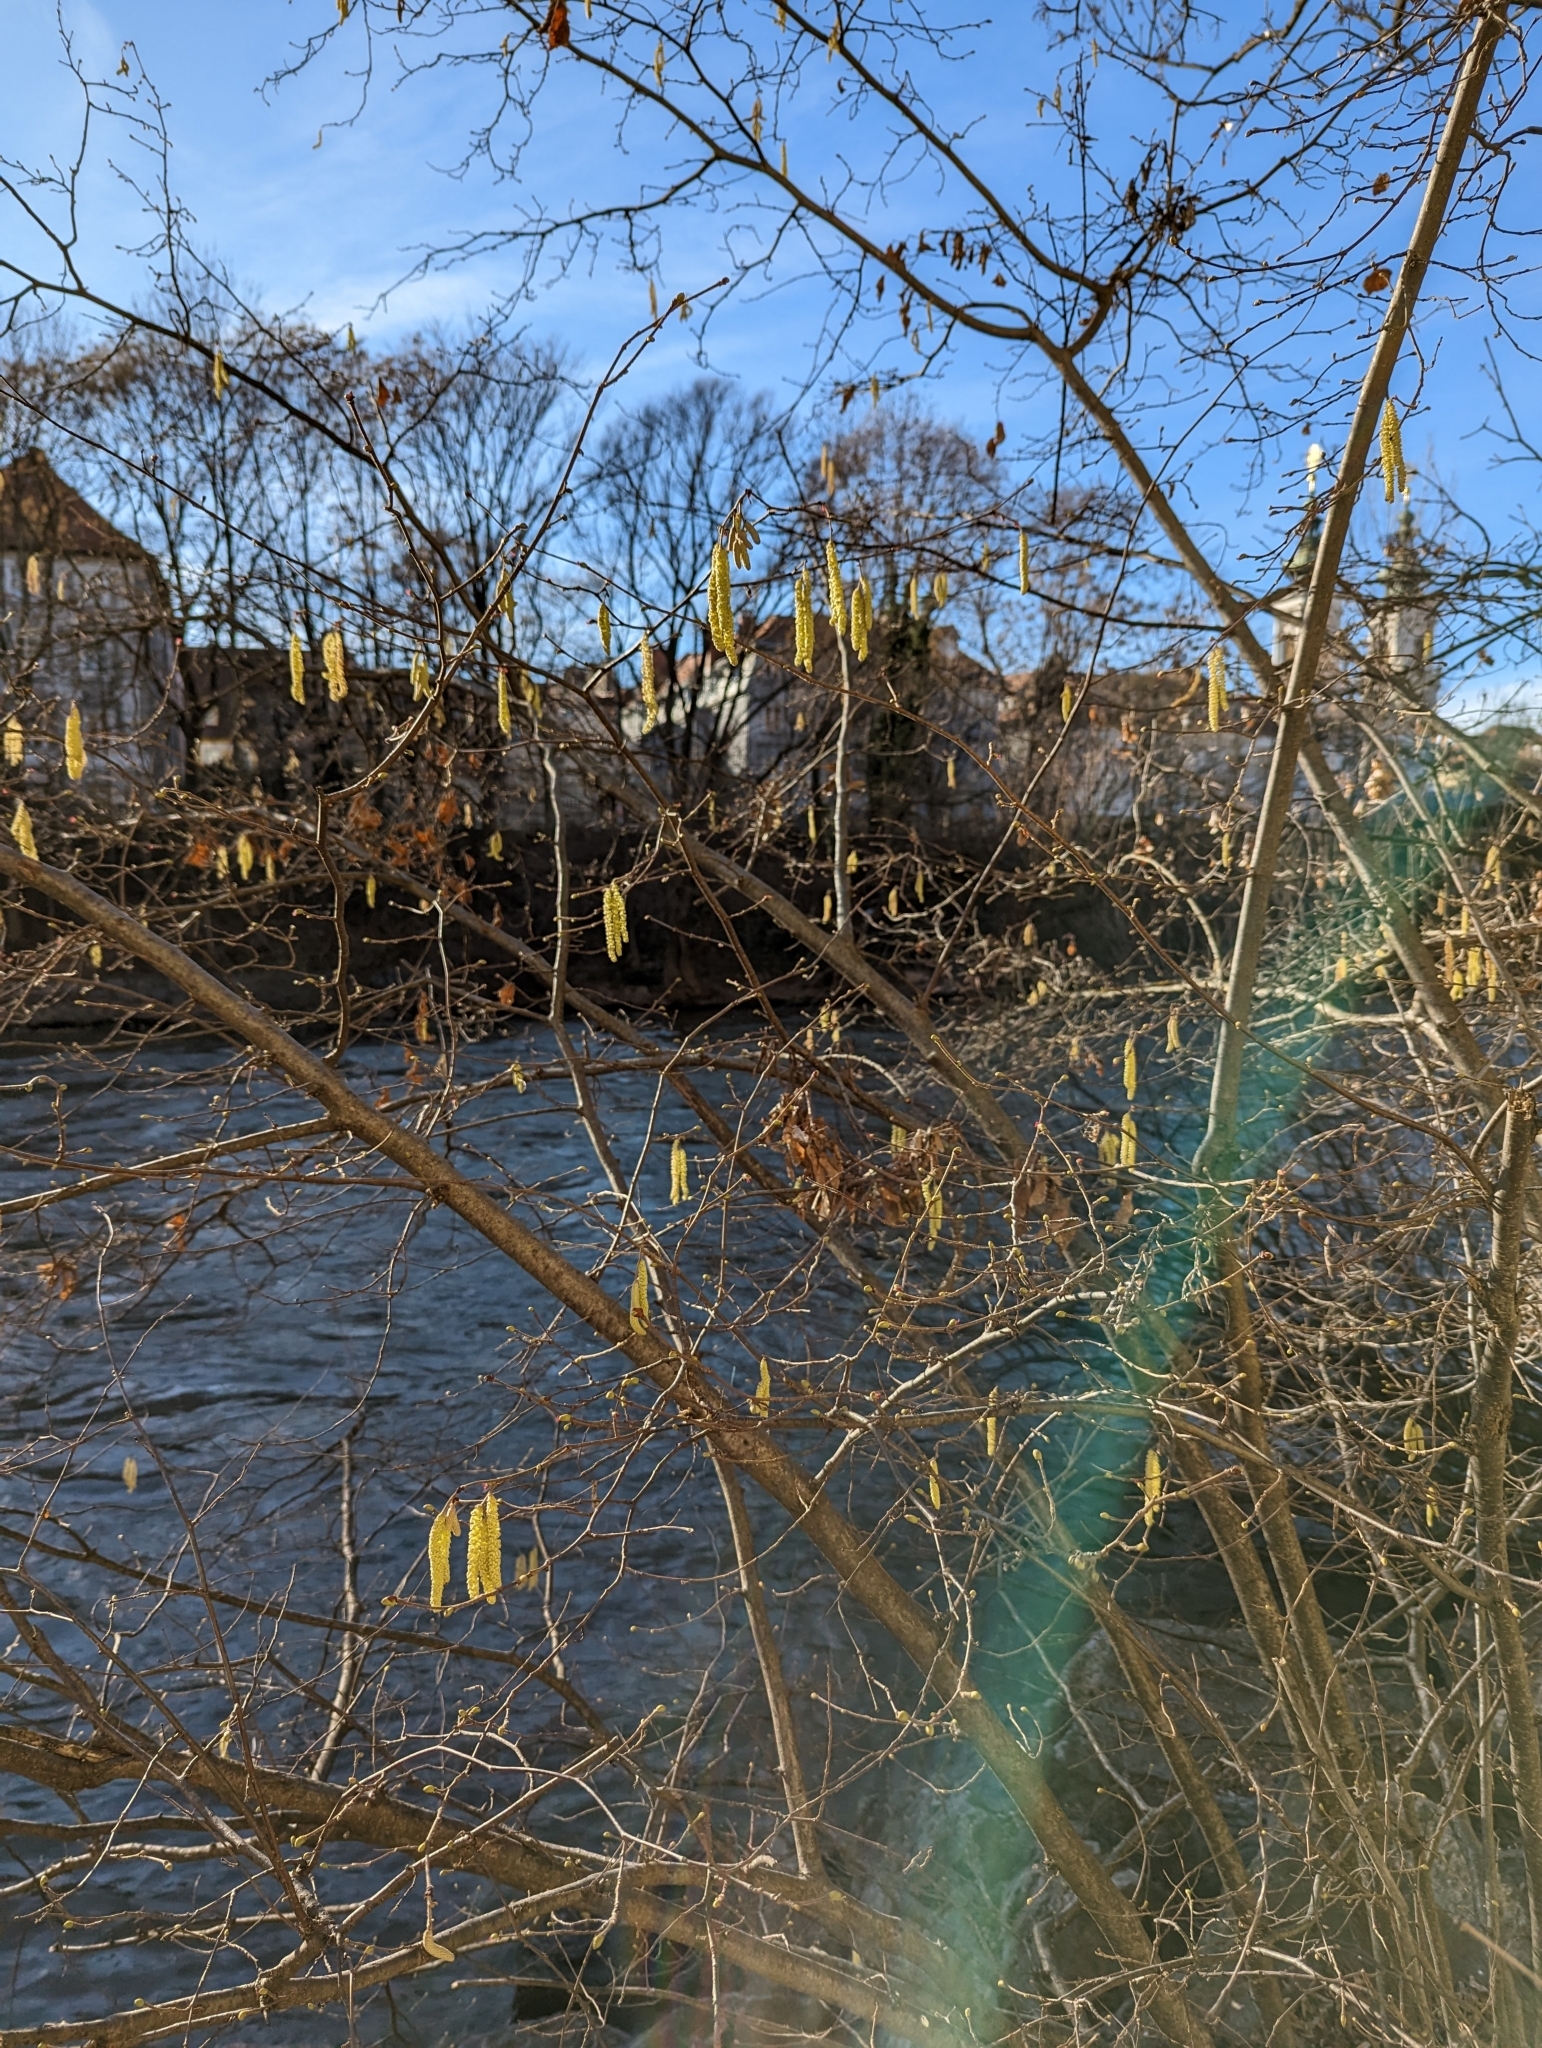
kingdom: Plantae
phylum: Tracheophyta
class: Magnoliopsida
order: Fagales
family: Betulaceae
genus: Corylus
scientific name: Corylus avellana
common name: European hazel
